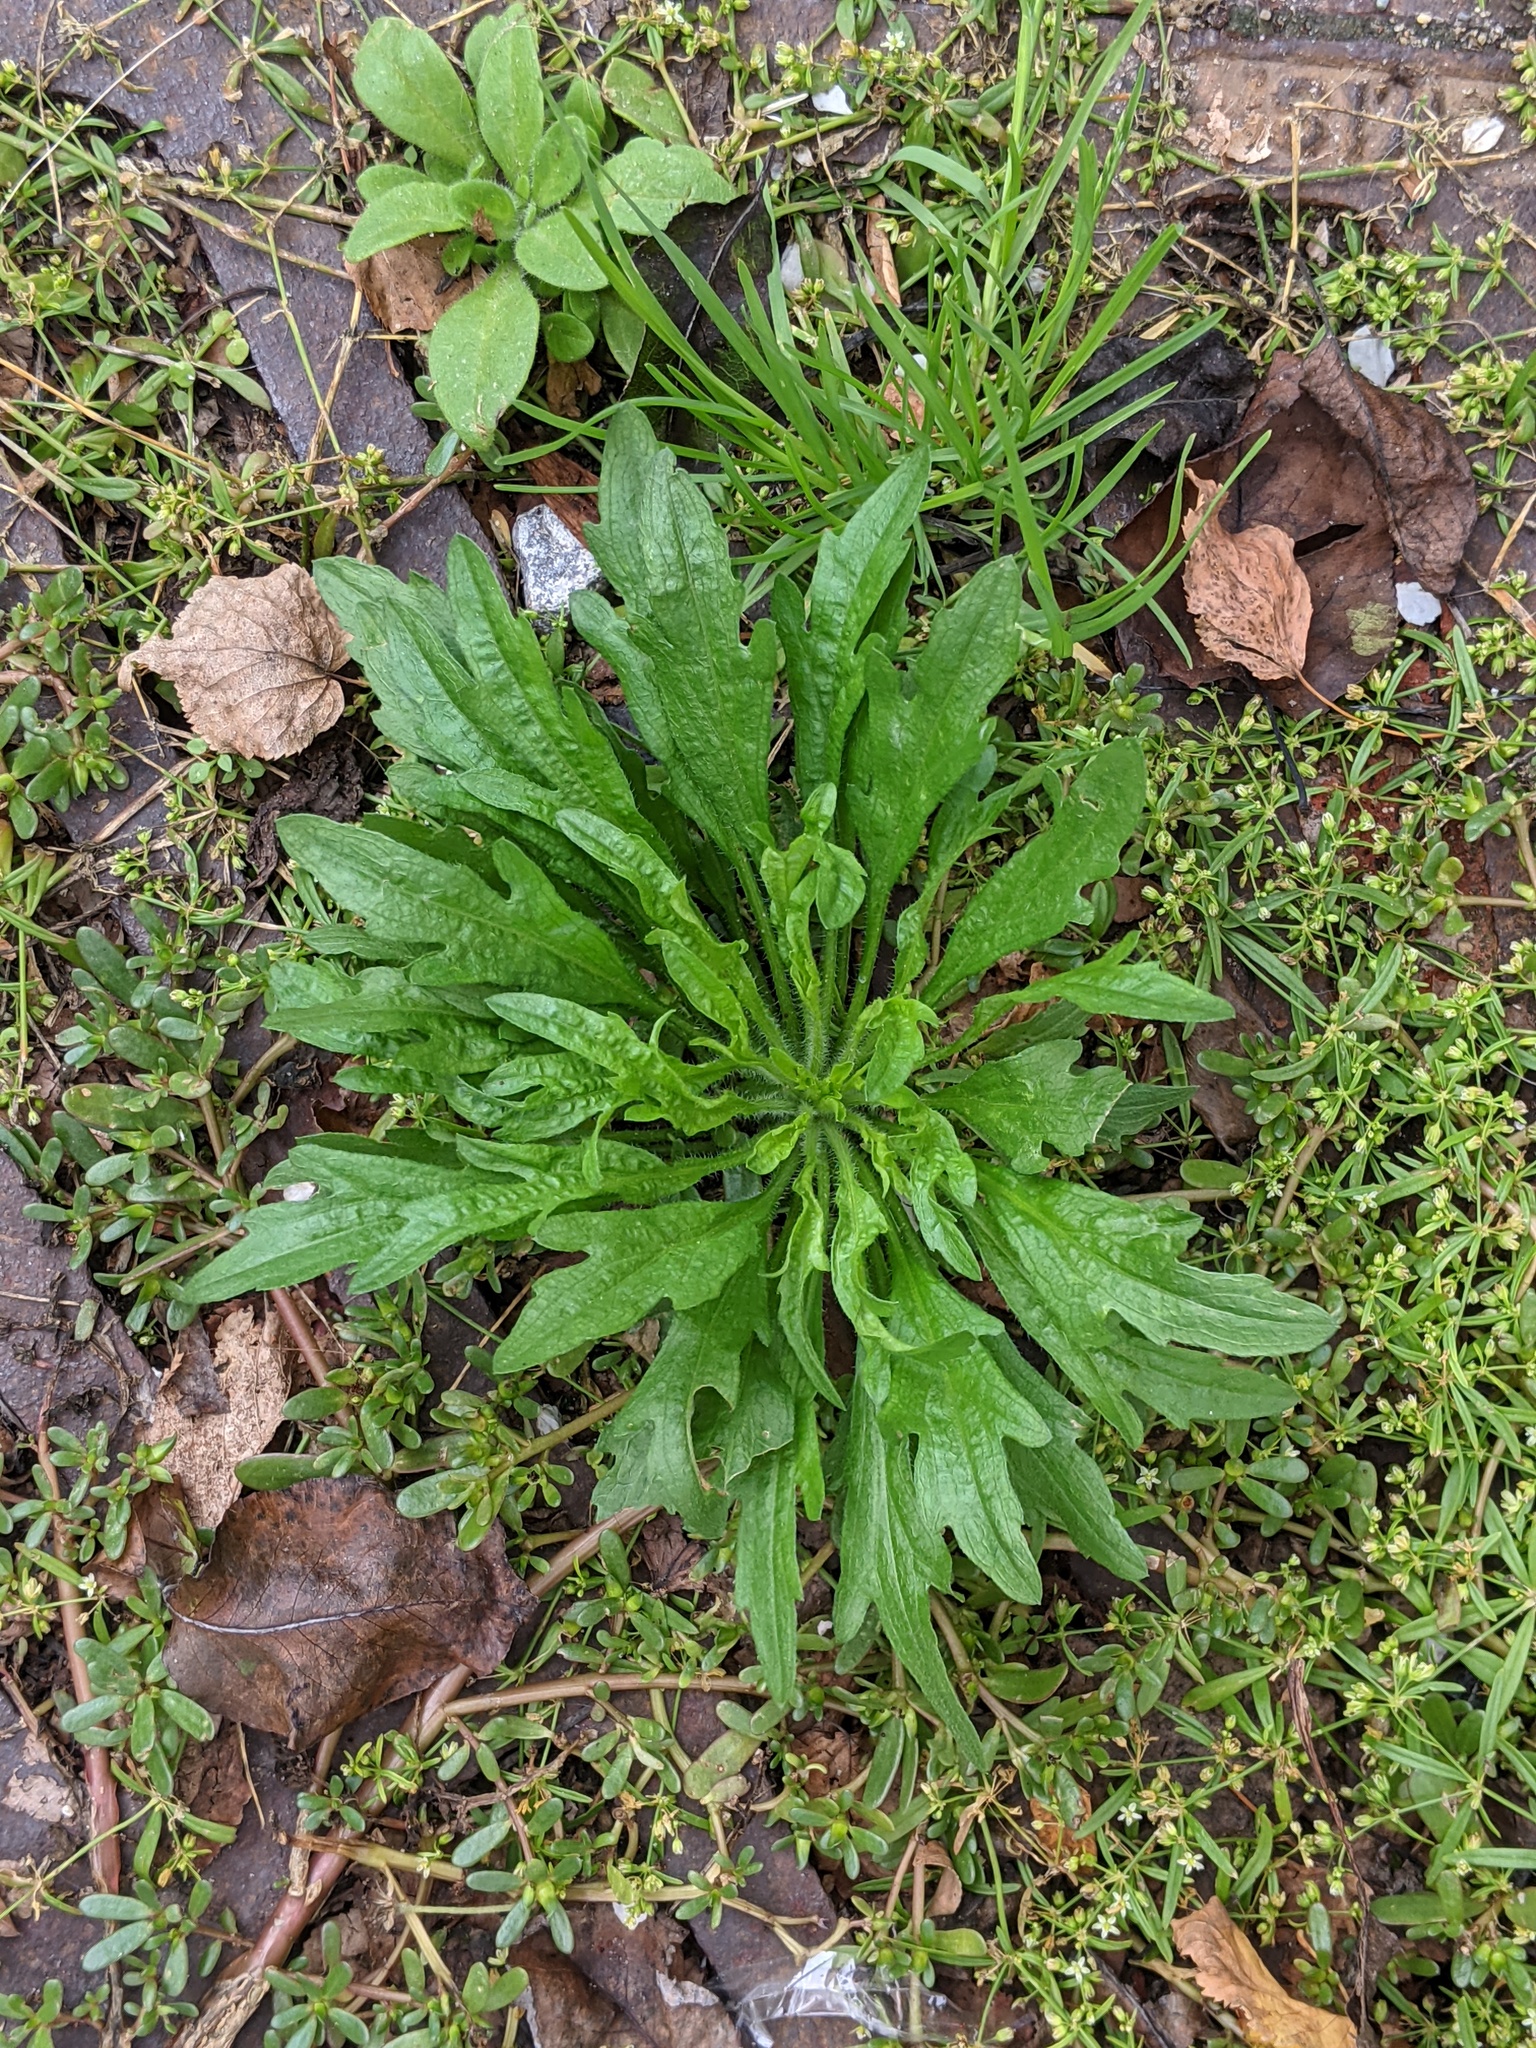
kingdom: Plantae
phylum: Tracheophyta
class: Magnoliopsida
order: Asterales
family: Asteraceae
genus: Erigeron
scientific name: Erigeron canadensis
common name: Canadian fleabane
